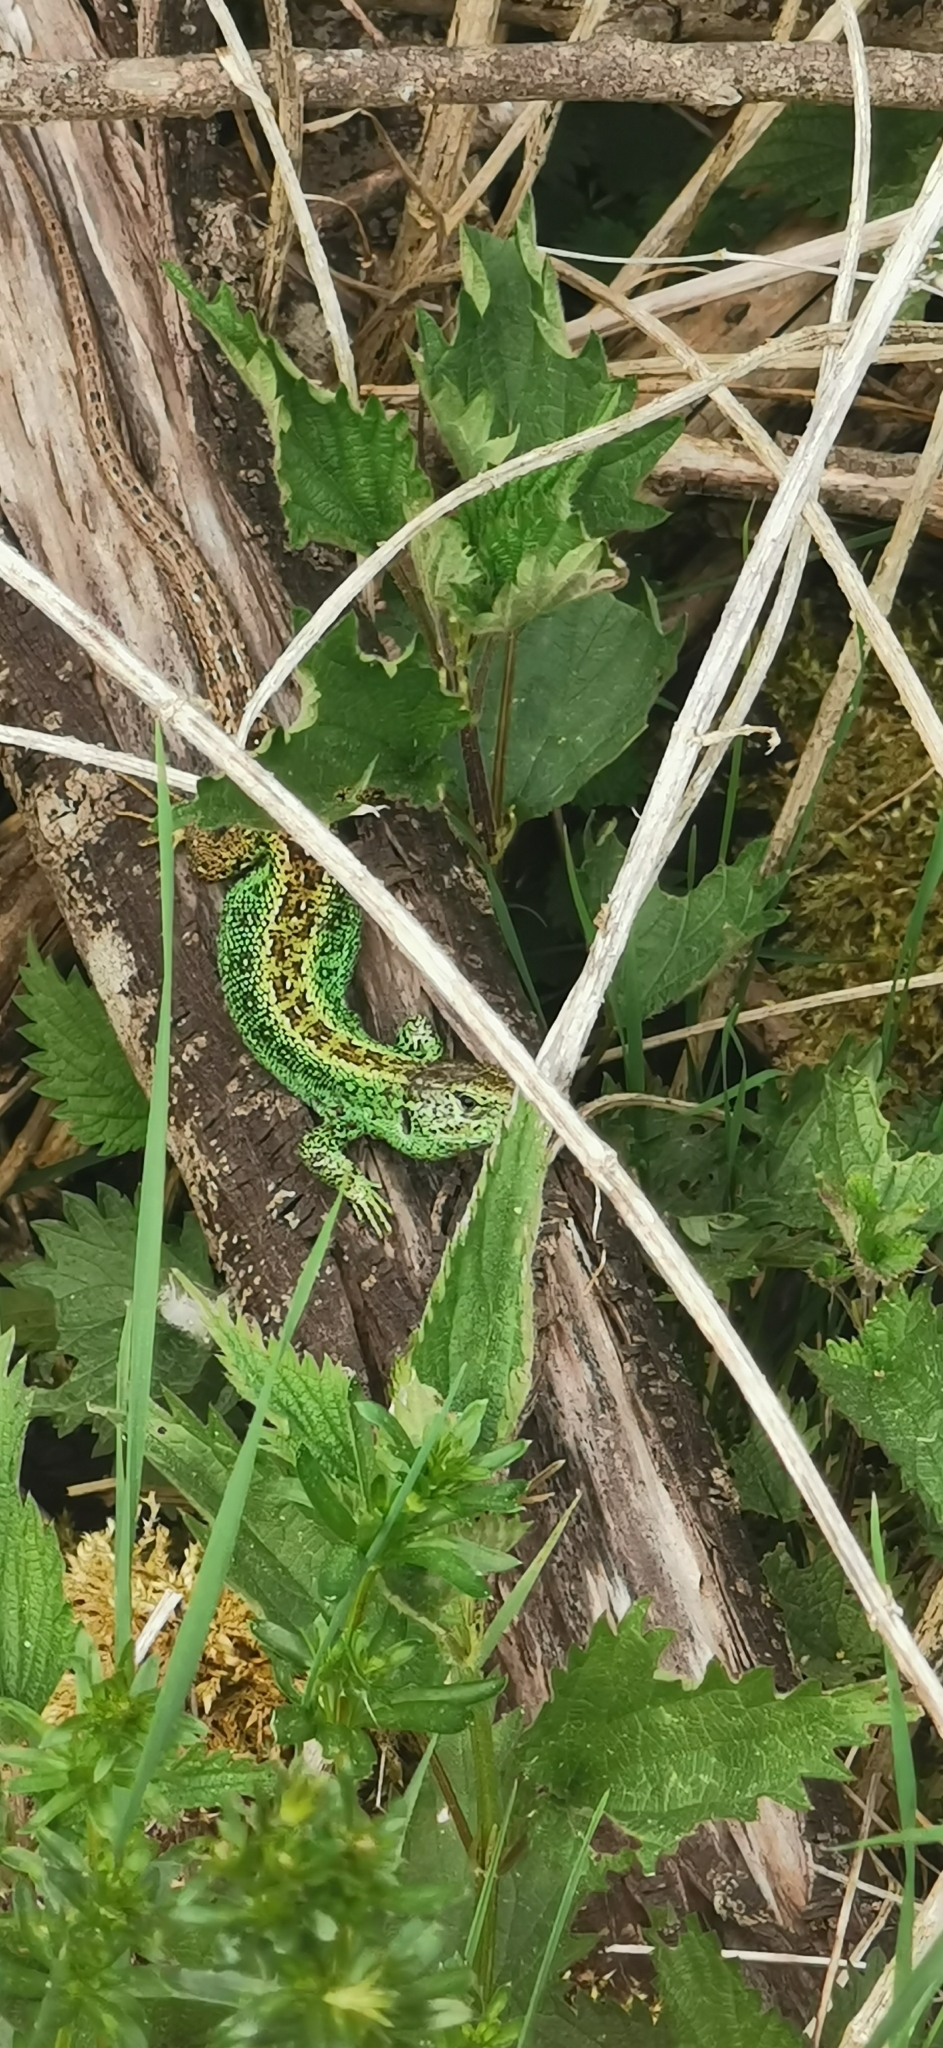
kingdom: Animalia
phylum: Chordata
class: Squamata
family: Lacertidae
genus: Lacerta
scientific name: Lacerta agilis
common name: Sand lizard
